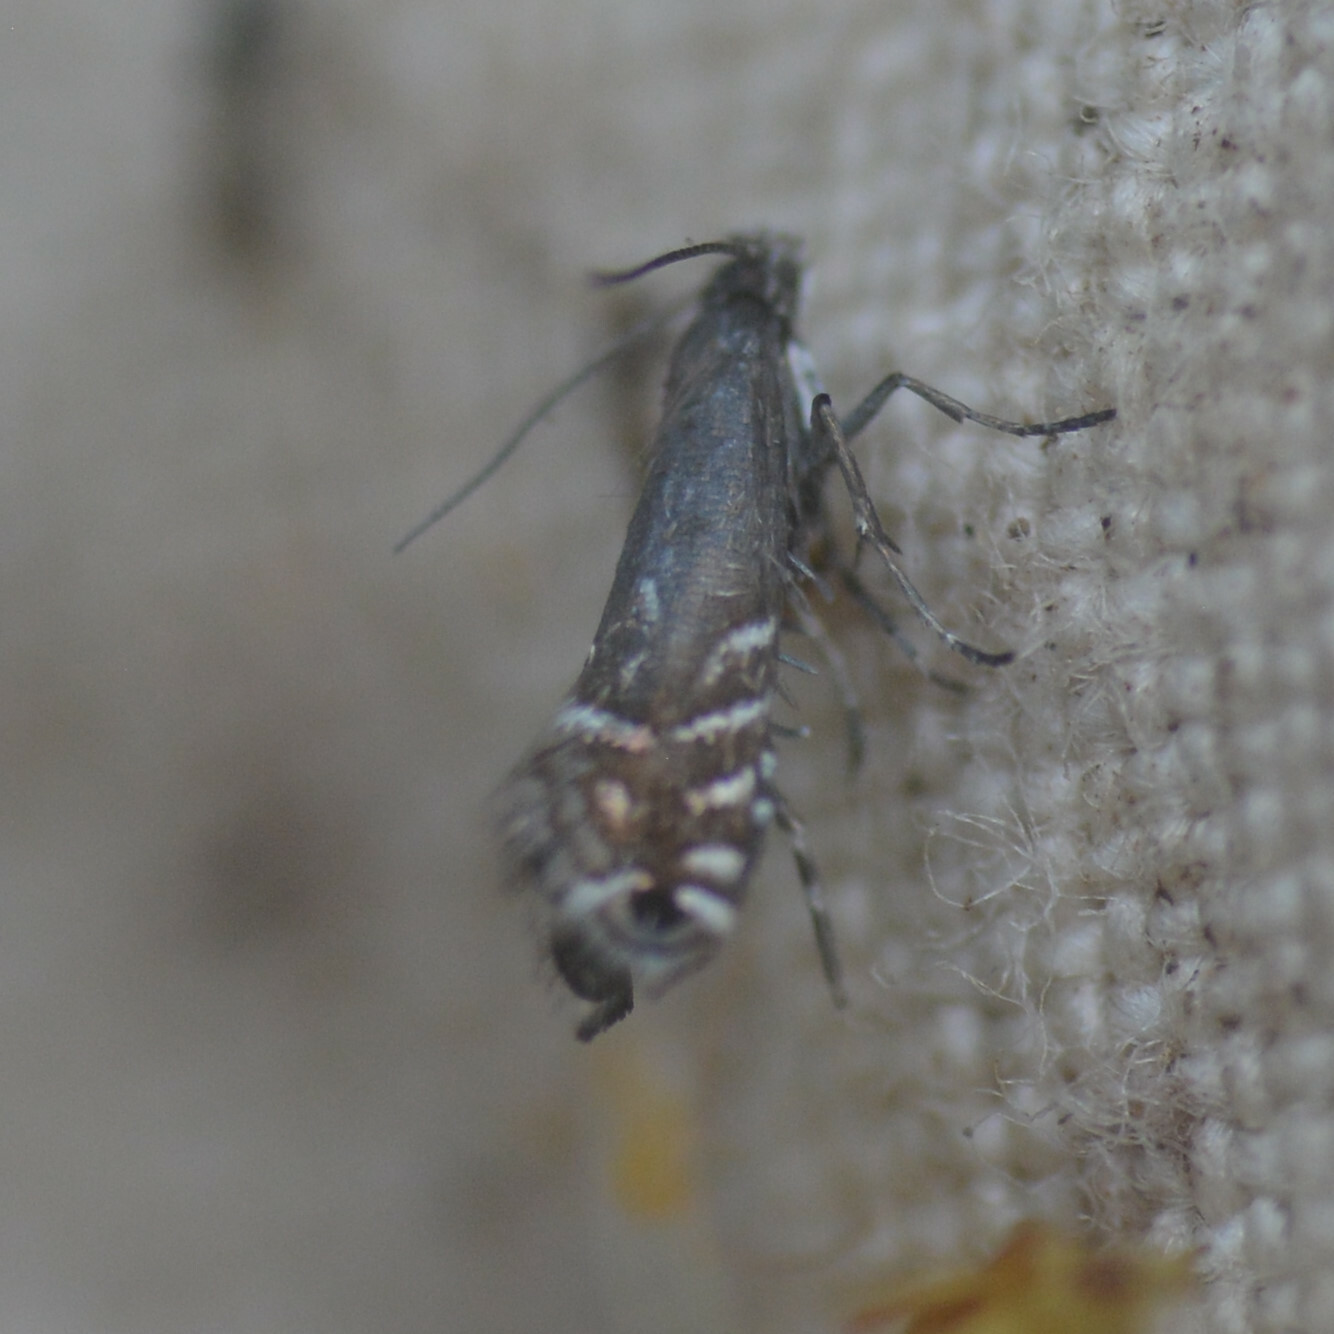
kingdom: Animalia
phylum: Arthropoda
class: Insecta
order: Lepidoptera
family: Glyphipterigidae
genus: Glyphipterix
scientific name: Glyphipterix simpliciella
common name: Cocksfoot moth
